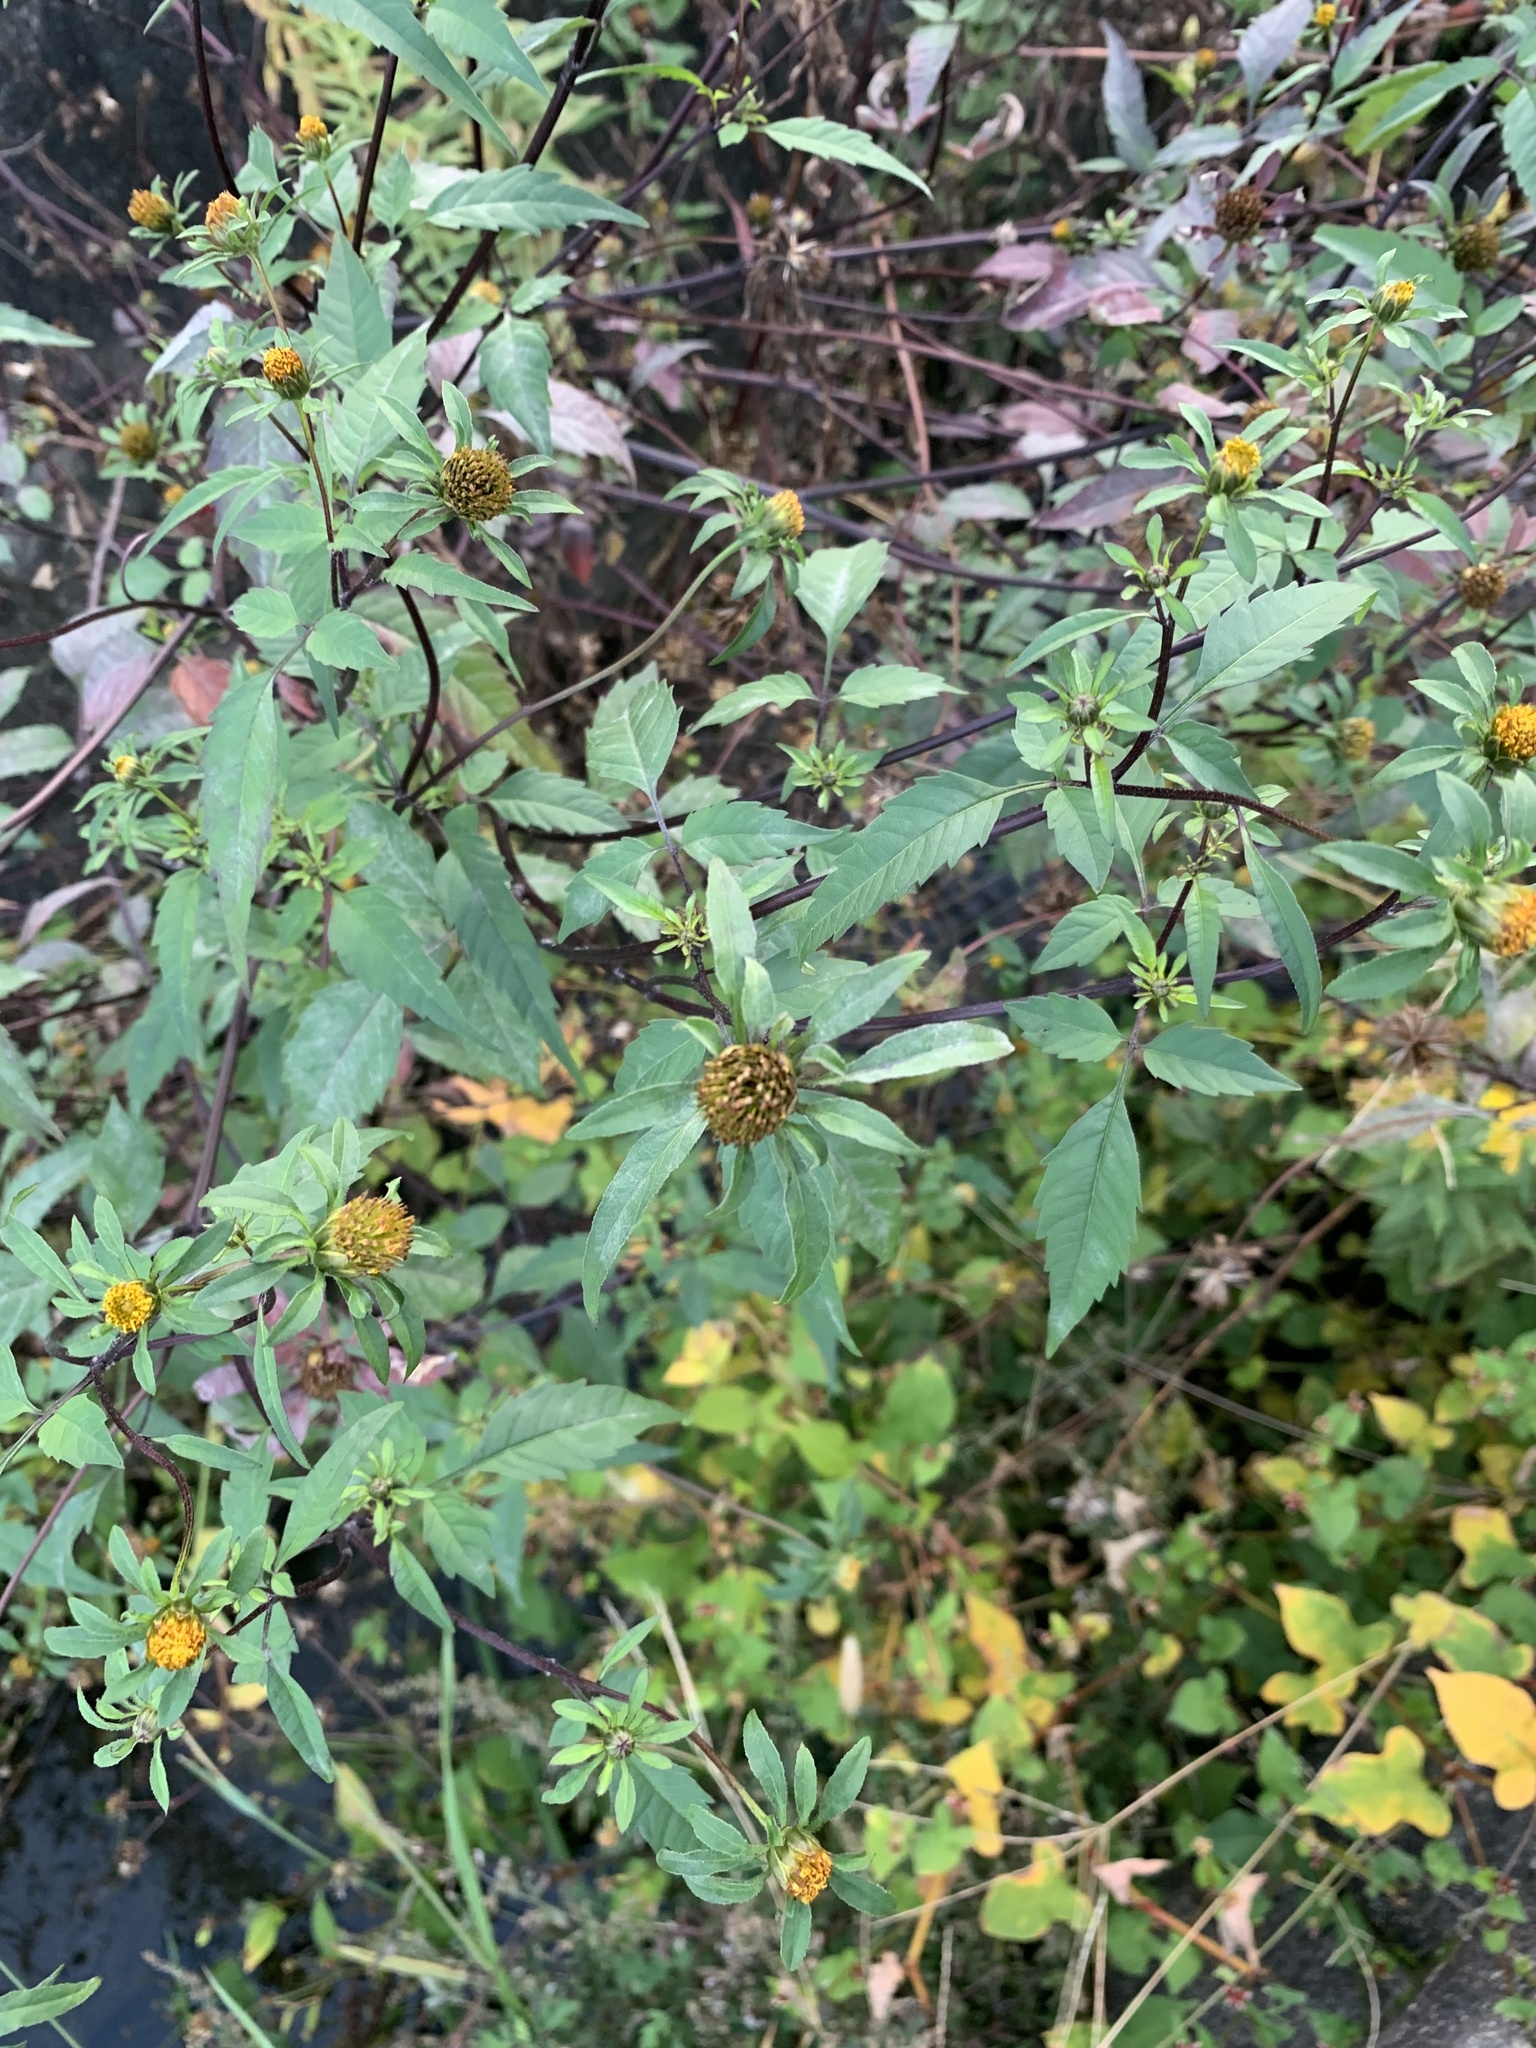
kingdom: Plantae
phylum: Tracheophyta
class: Magnoliopsida
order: Asterales
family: Asteraceae
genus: Bidens
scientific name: Bidens frondosa
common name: Beggarticks
